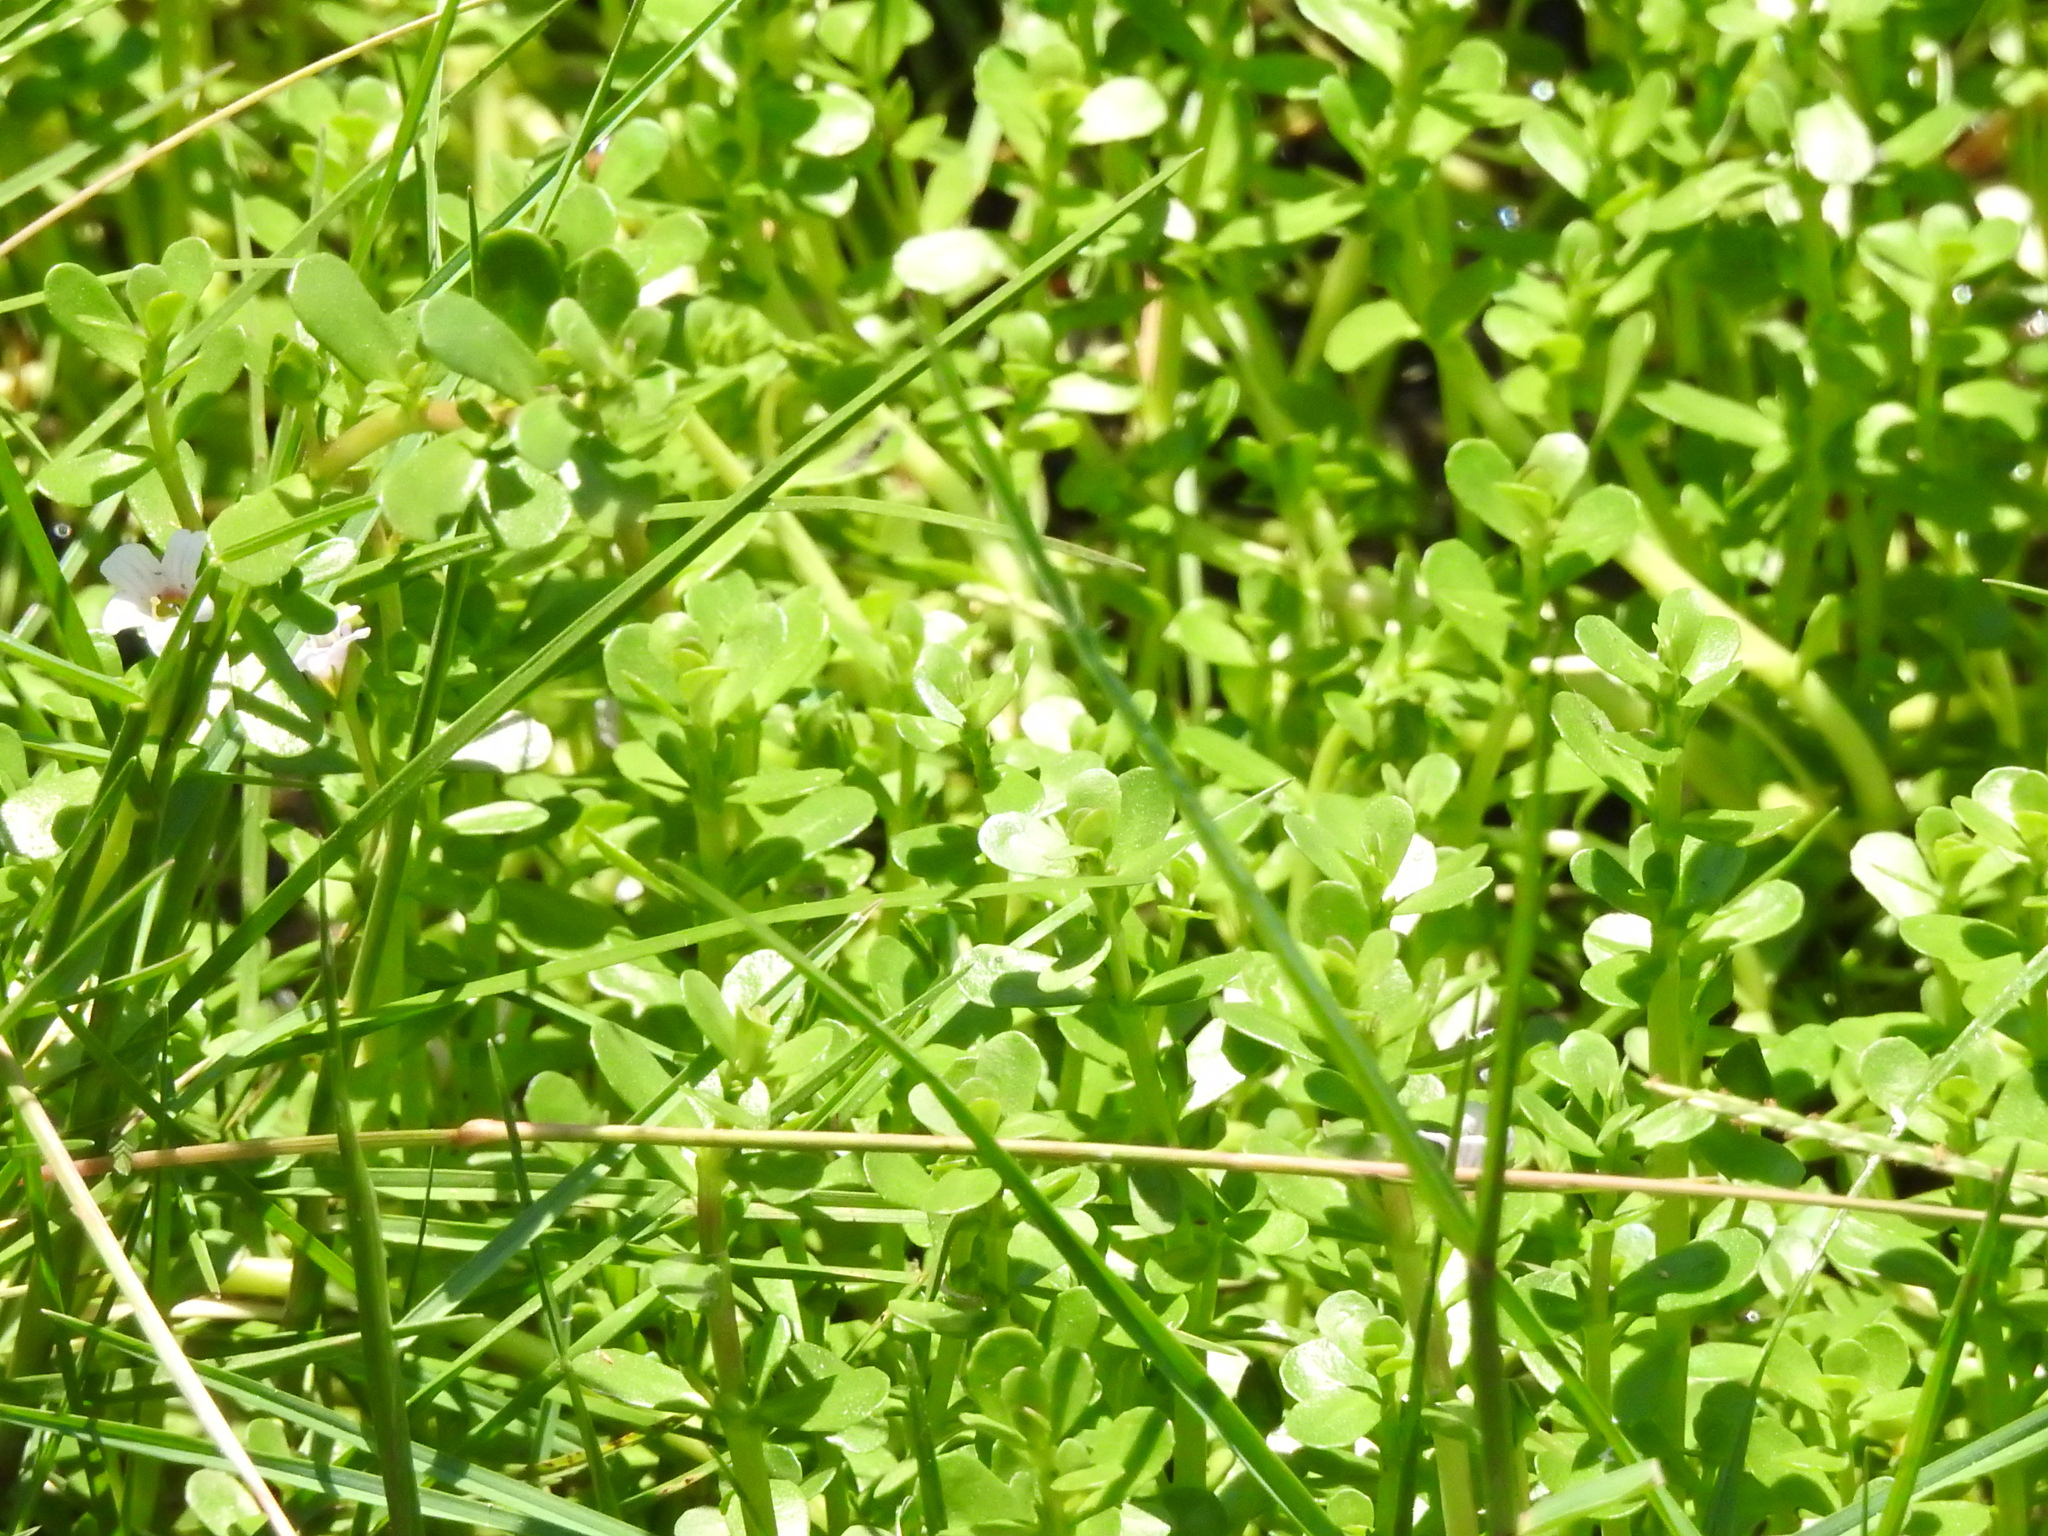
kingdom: Plantae
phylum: Tracheophyta
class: Magnoliopsida
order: Lamiales
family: Plantaginaceae
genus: Bacopa
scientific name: Bacopa monnieri
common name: Indian-pennywort
